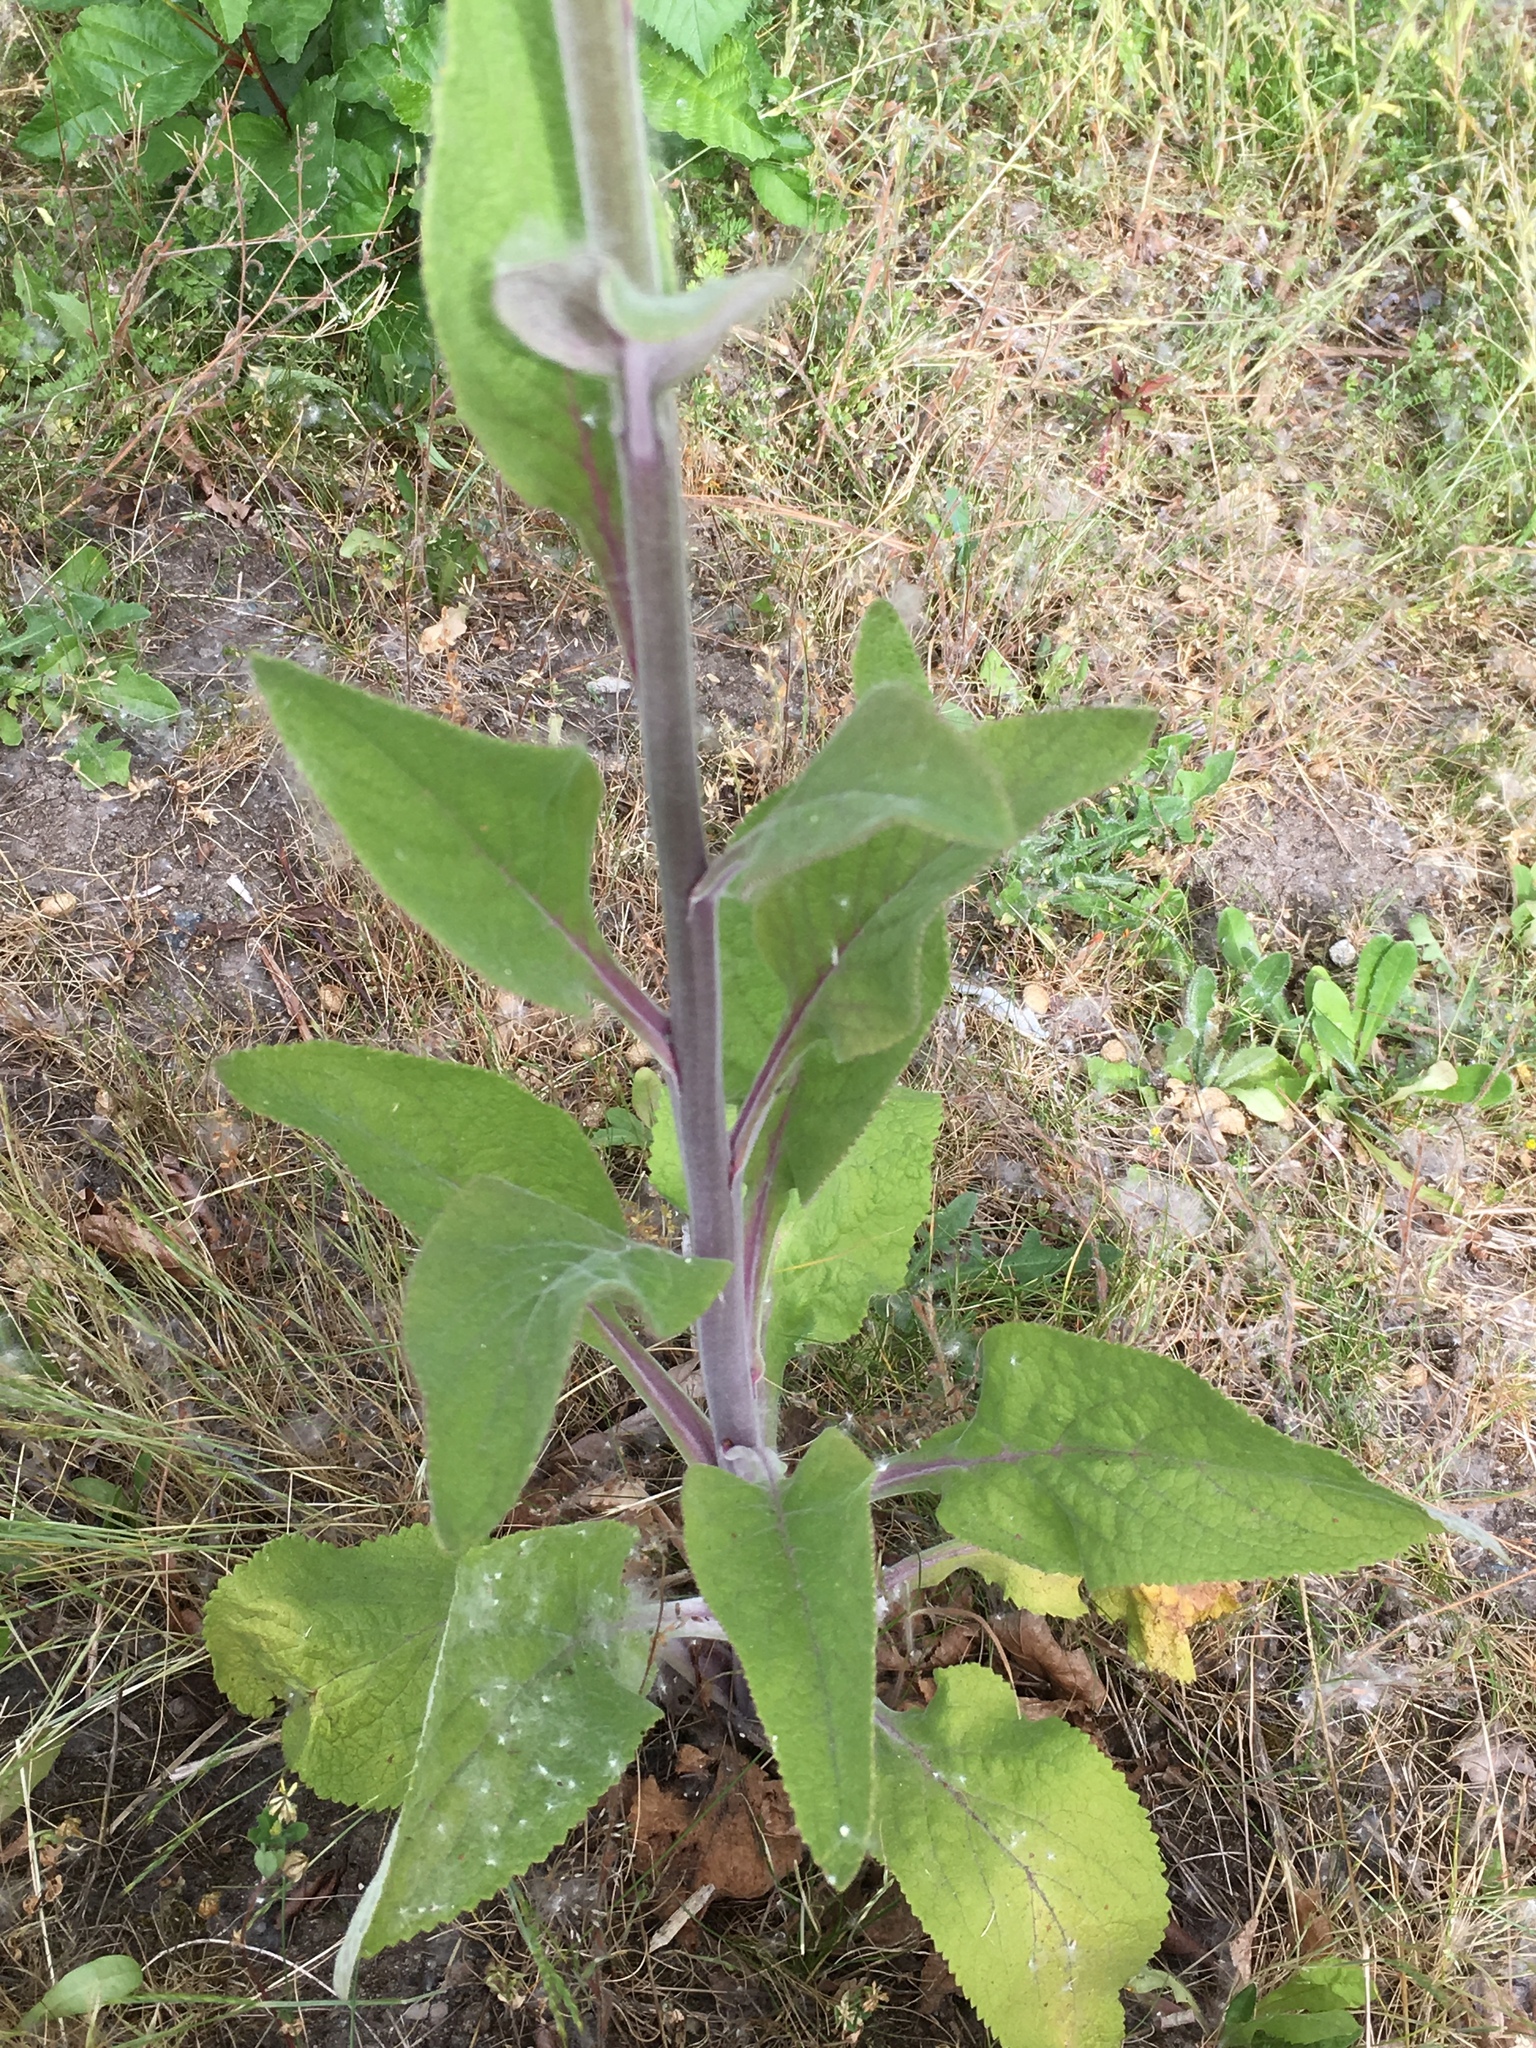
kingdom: Plantae
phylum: Tracheophyta
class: Magnoliopsida
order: Lamiales
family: Plantaginaceae
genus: Digitalis
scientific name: Digitalis purpurea
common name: Foxglove
